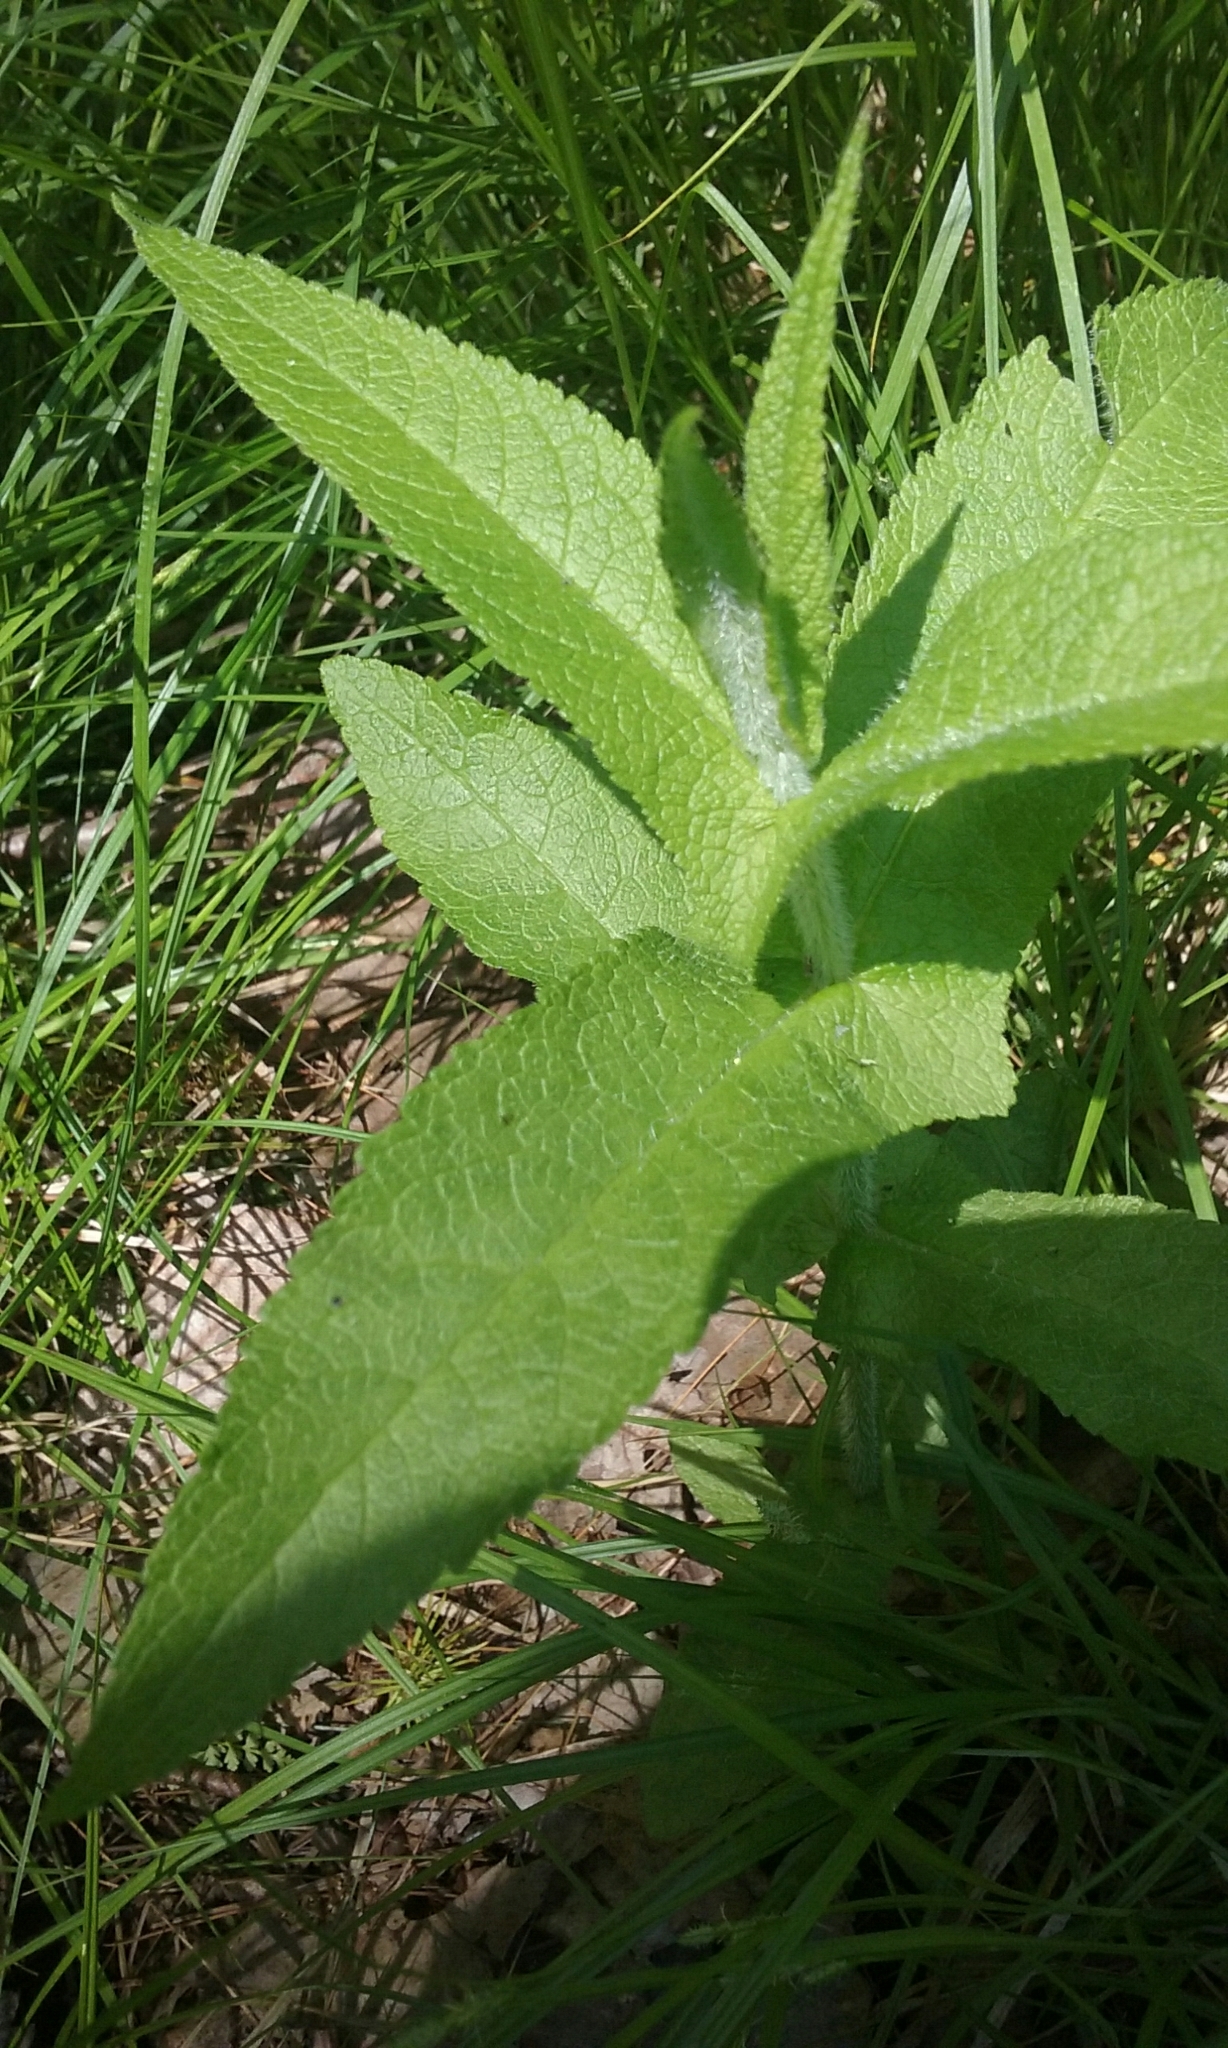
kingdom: Plantae
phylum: Tracheophyta
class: Magnoliopsida
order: Asterales
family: Asteraceae
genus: Eupatorium
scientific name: Eupatorium perfoliatum
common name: Boneset
